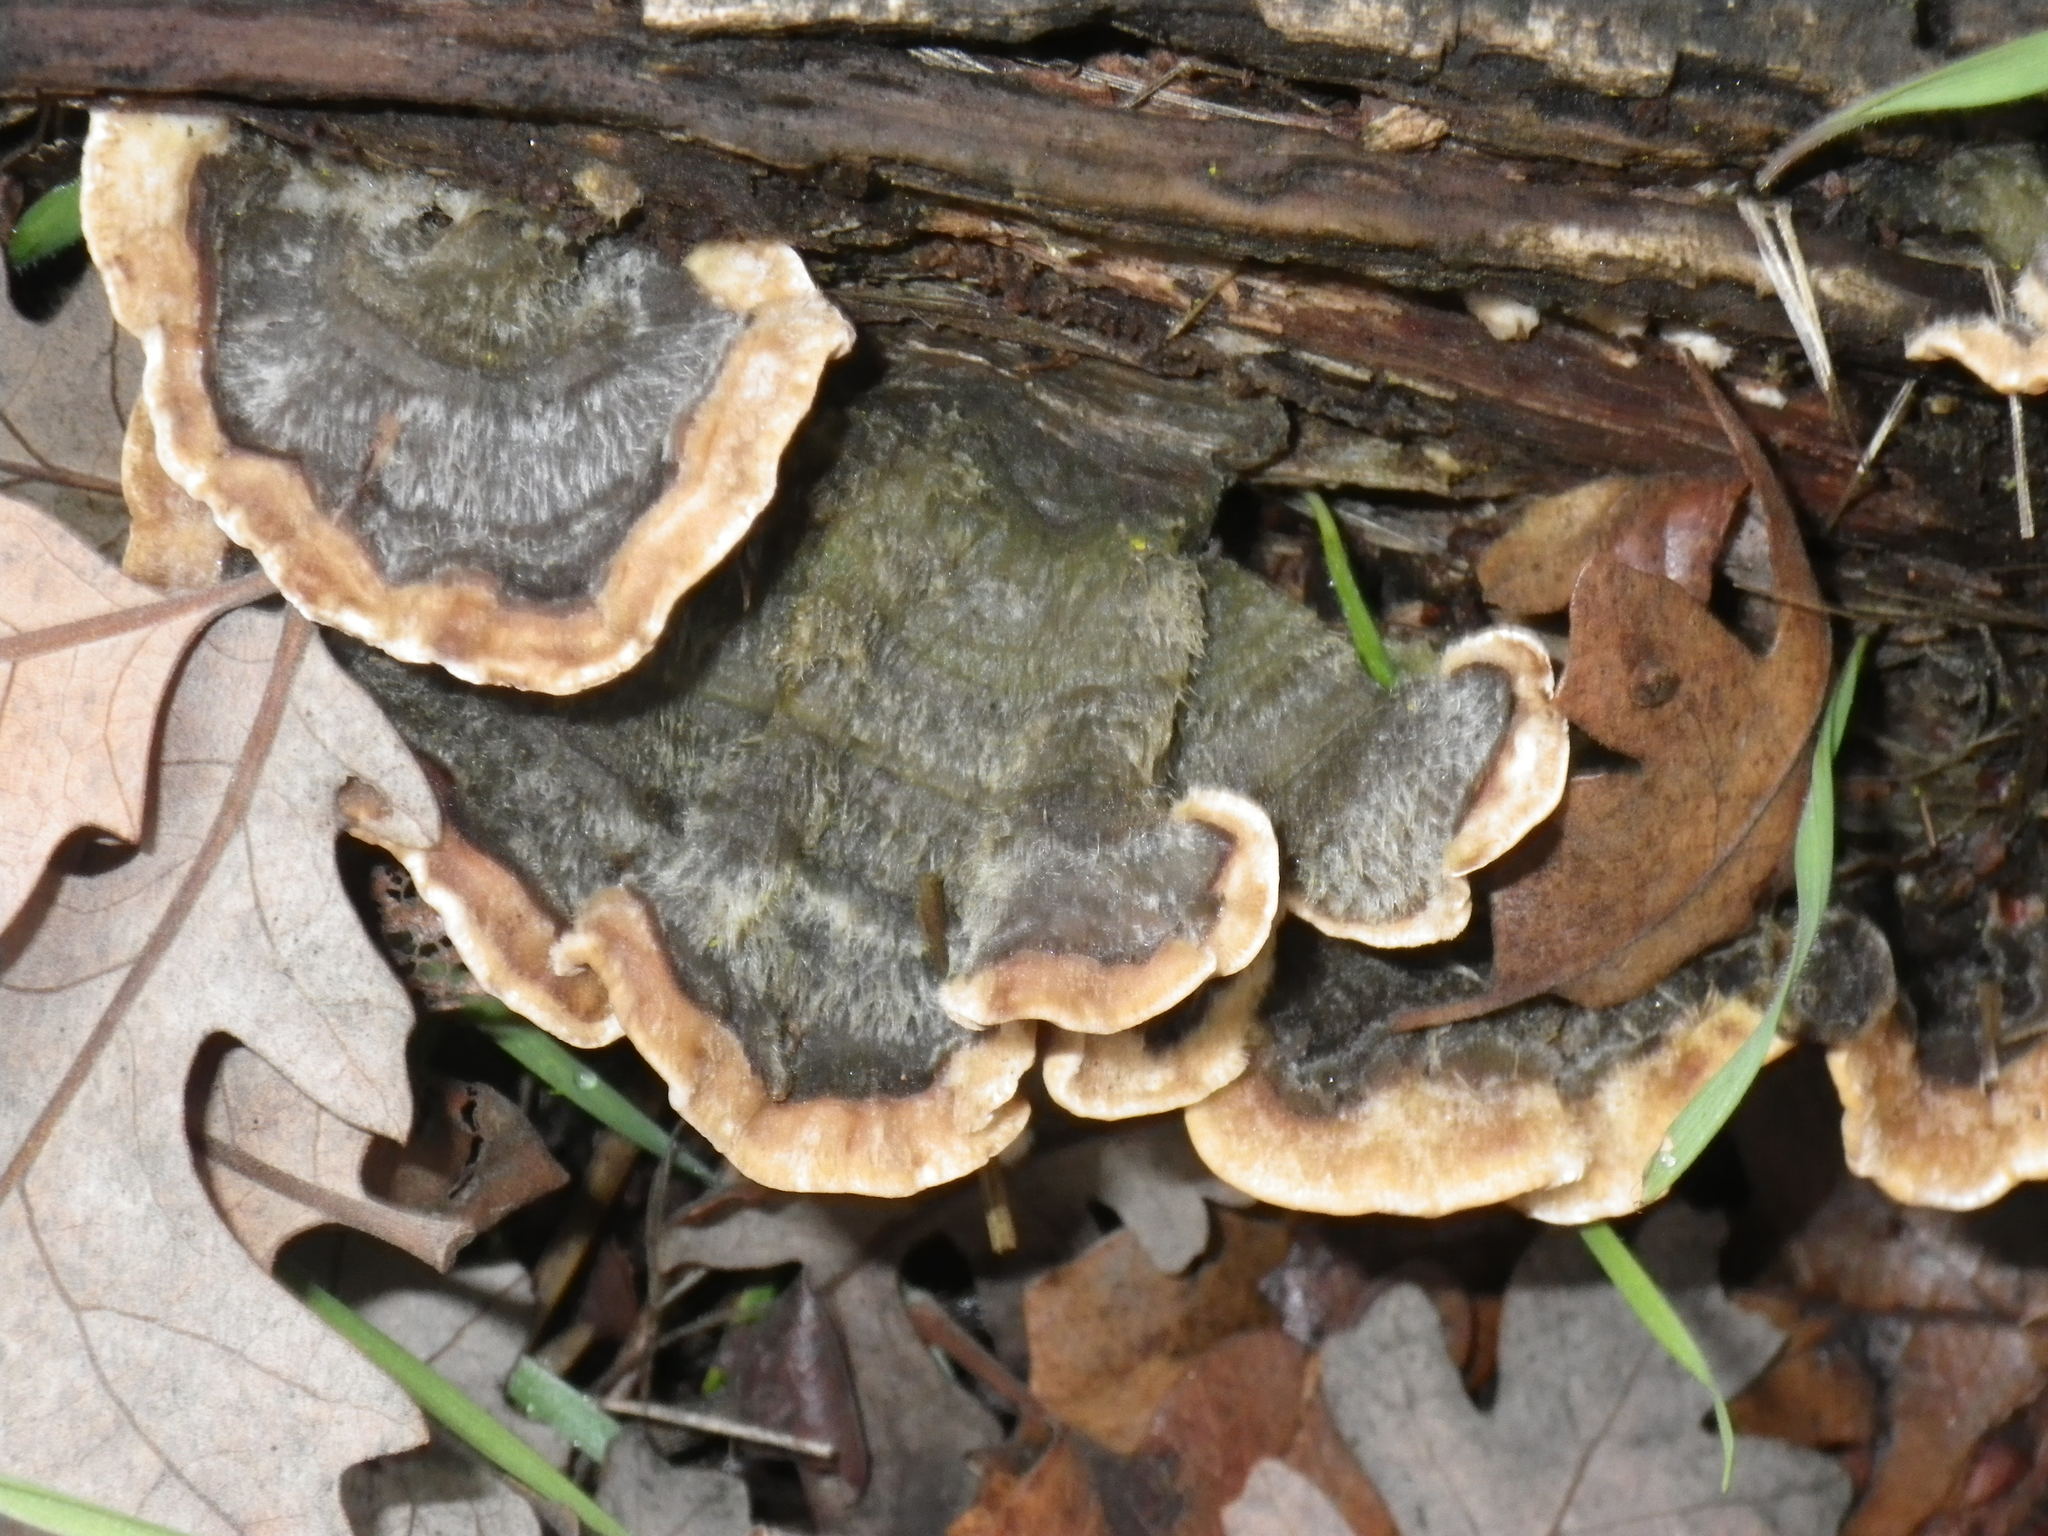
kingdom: Fungi
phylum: Basidiomycota
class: Agaricomycetes
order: Polyporales
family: Polyporaceae
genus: Trametes
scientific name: Trametes versicolor
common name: Turkeytail
